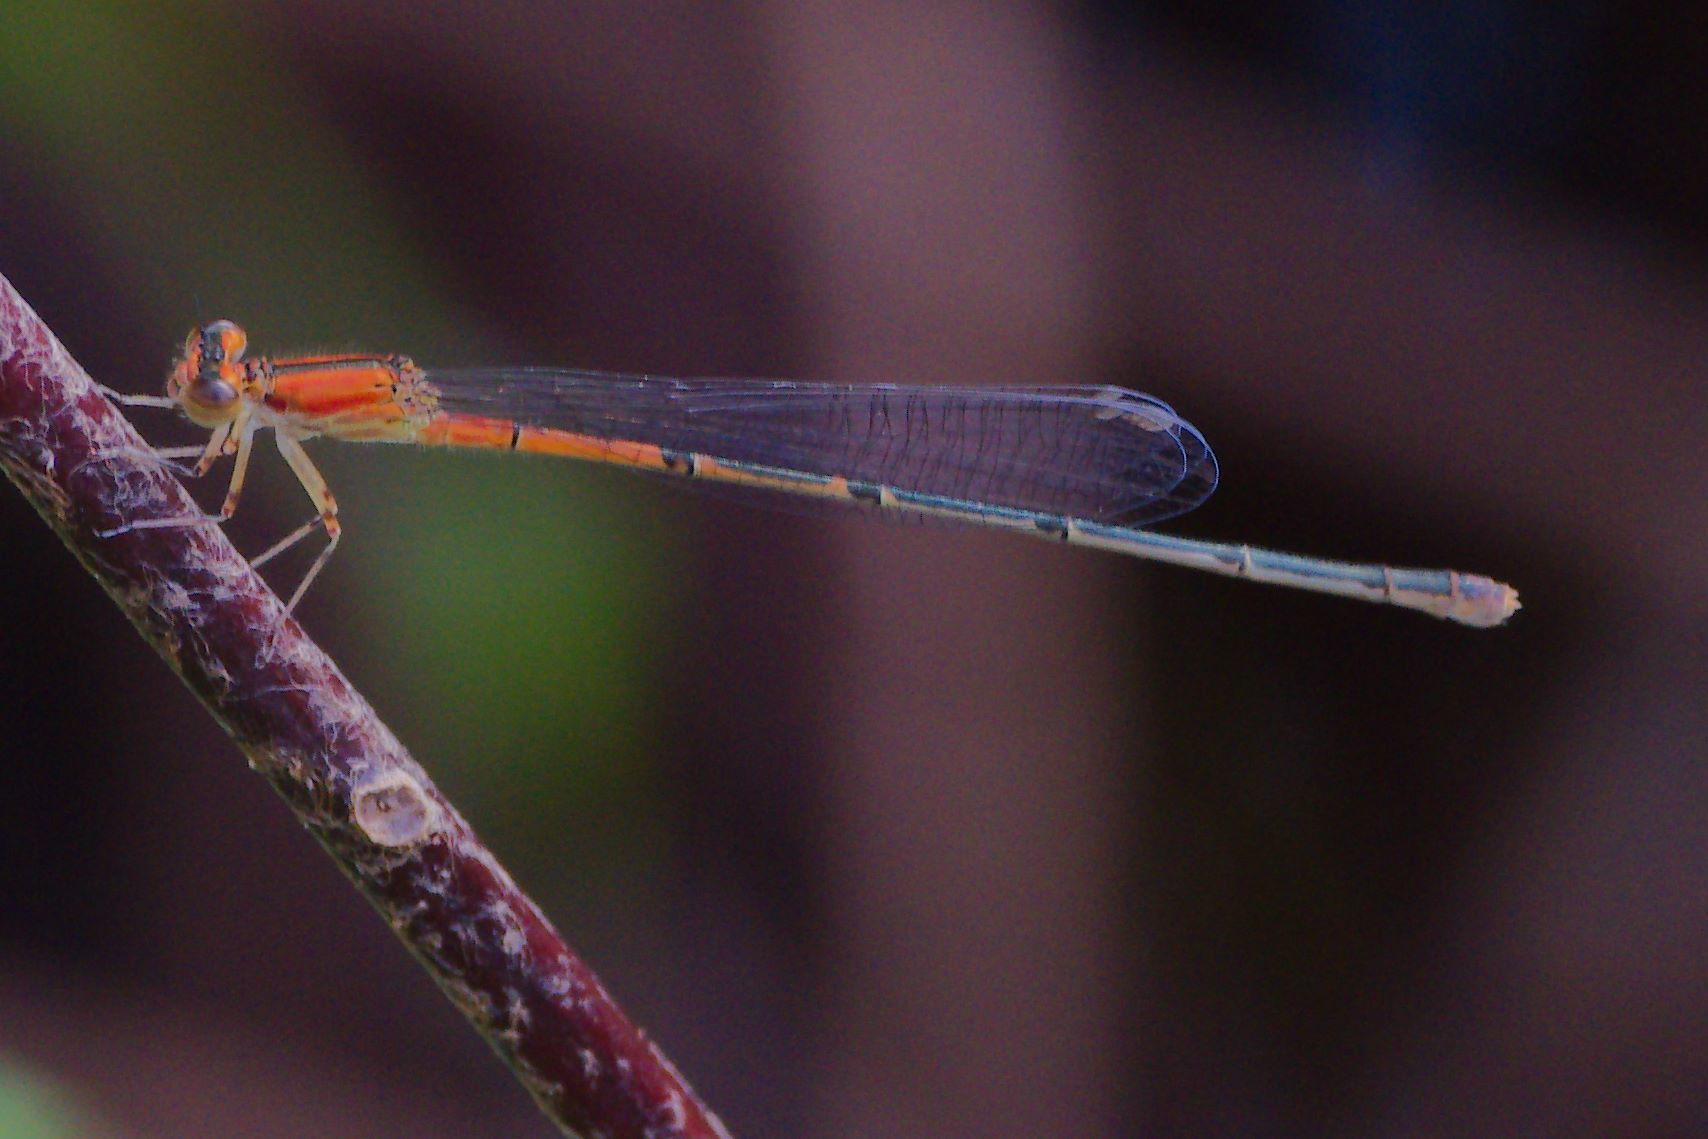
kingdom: Animalia
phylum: Arthropoda
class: Insecta
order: Odonata
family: Coenagrionidae
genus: Ischnura
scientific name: Ischnura prognata
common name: Furtive forktail
